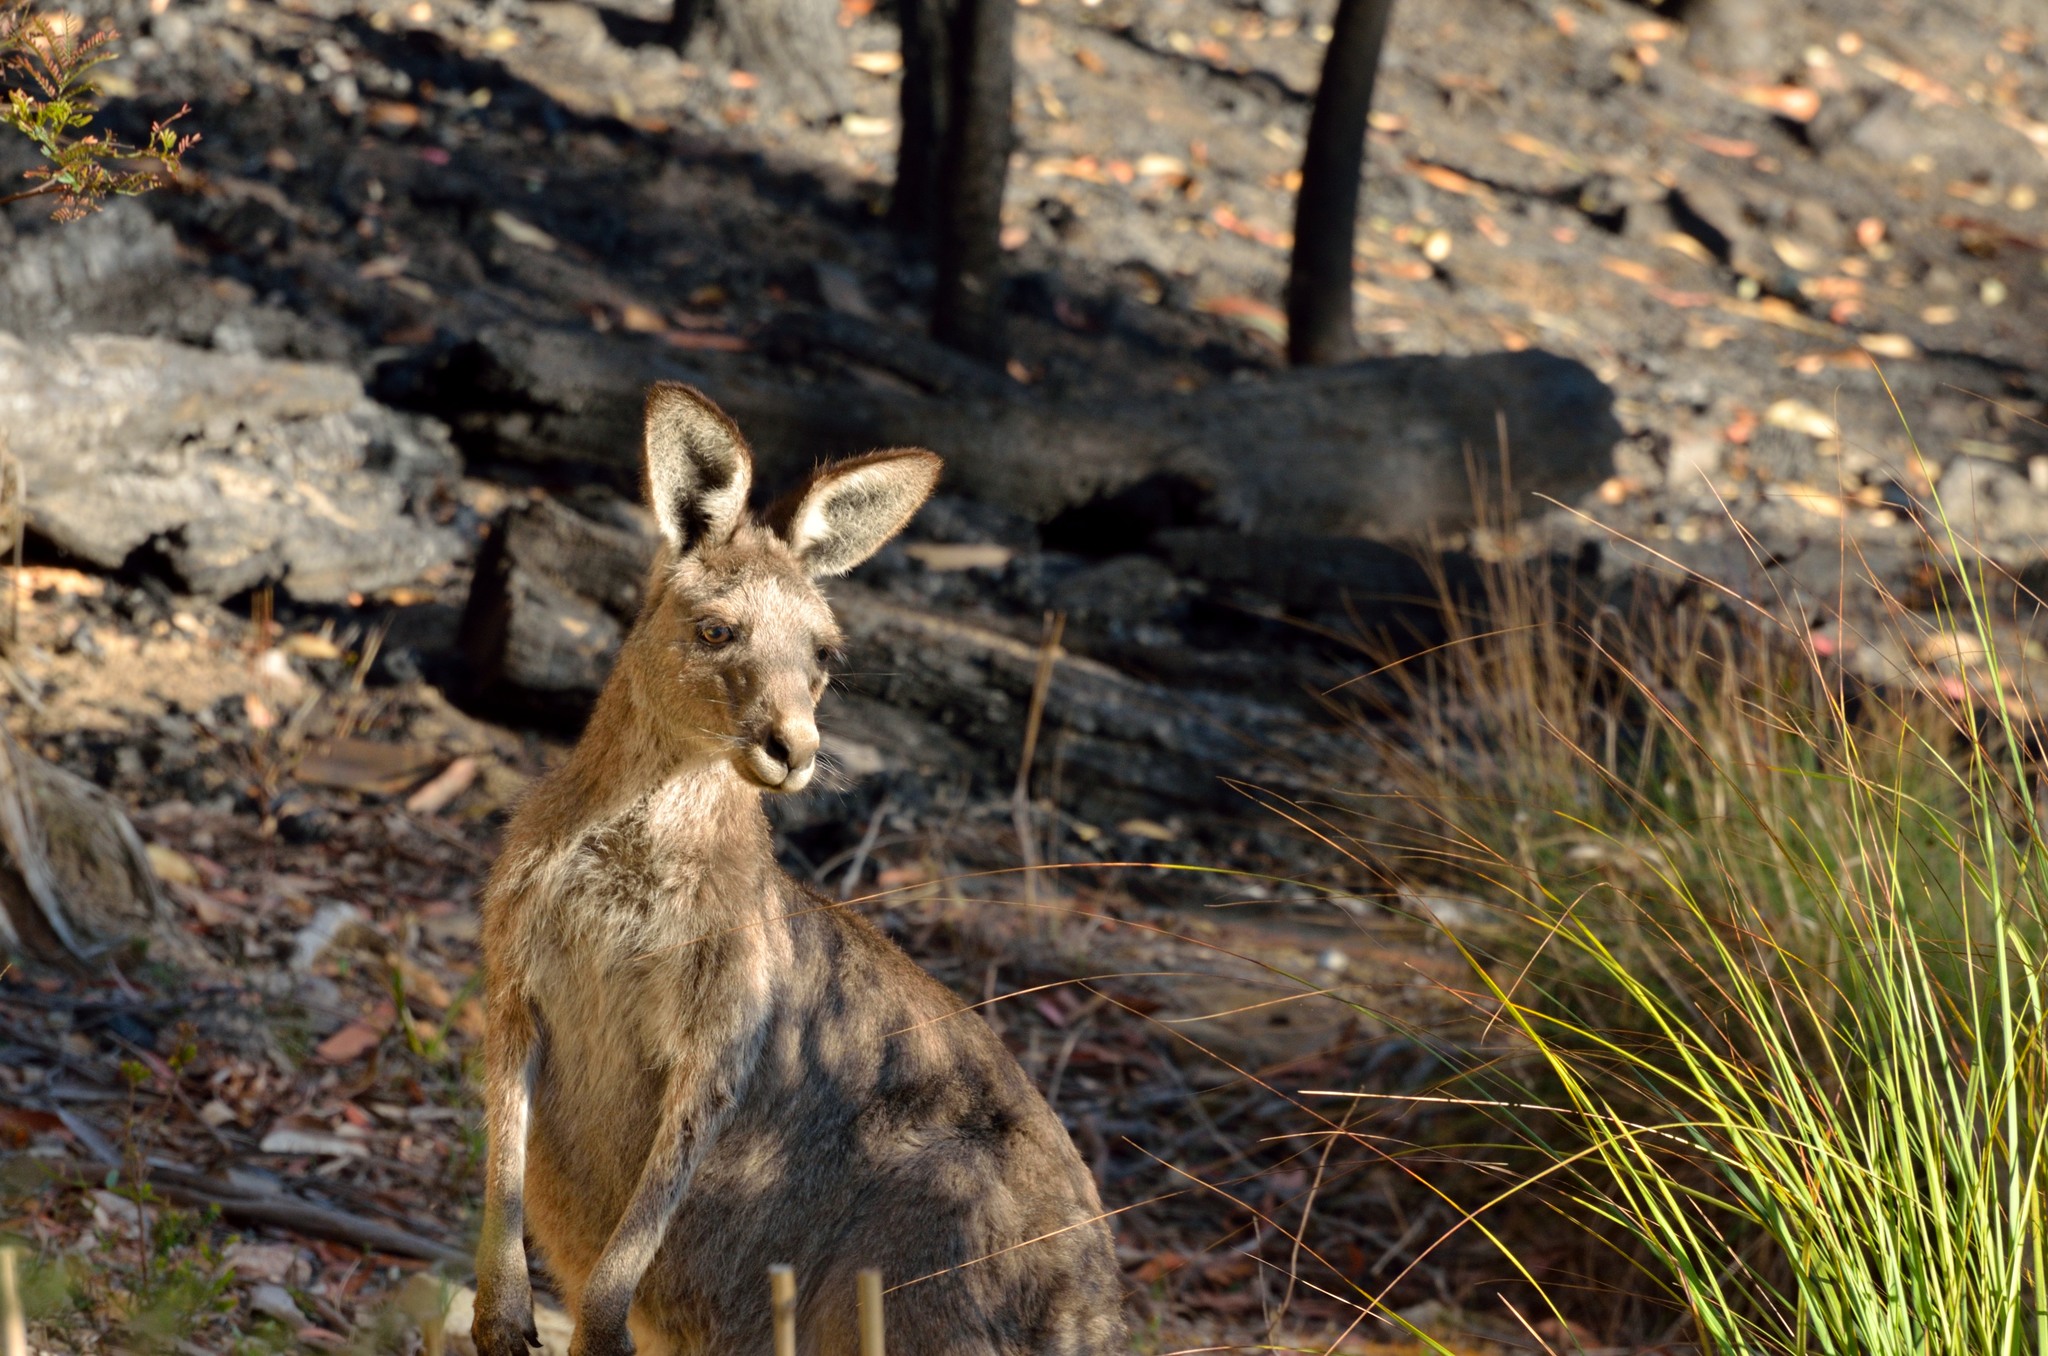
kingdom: Animalia
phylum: Chordata
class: Mammalia
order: Diprotodontia
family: Macropodidae
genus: Macropus
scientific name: Macropus giganteus
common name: Eastern grey kangaroo
